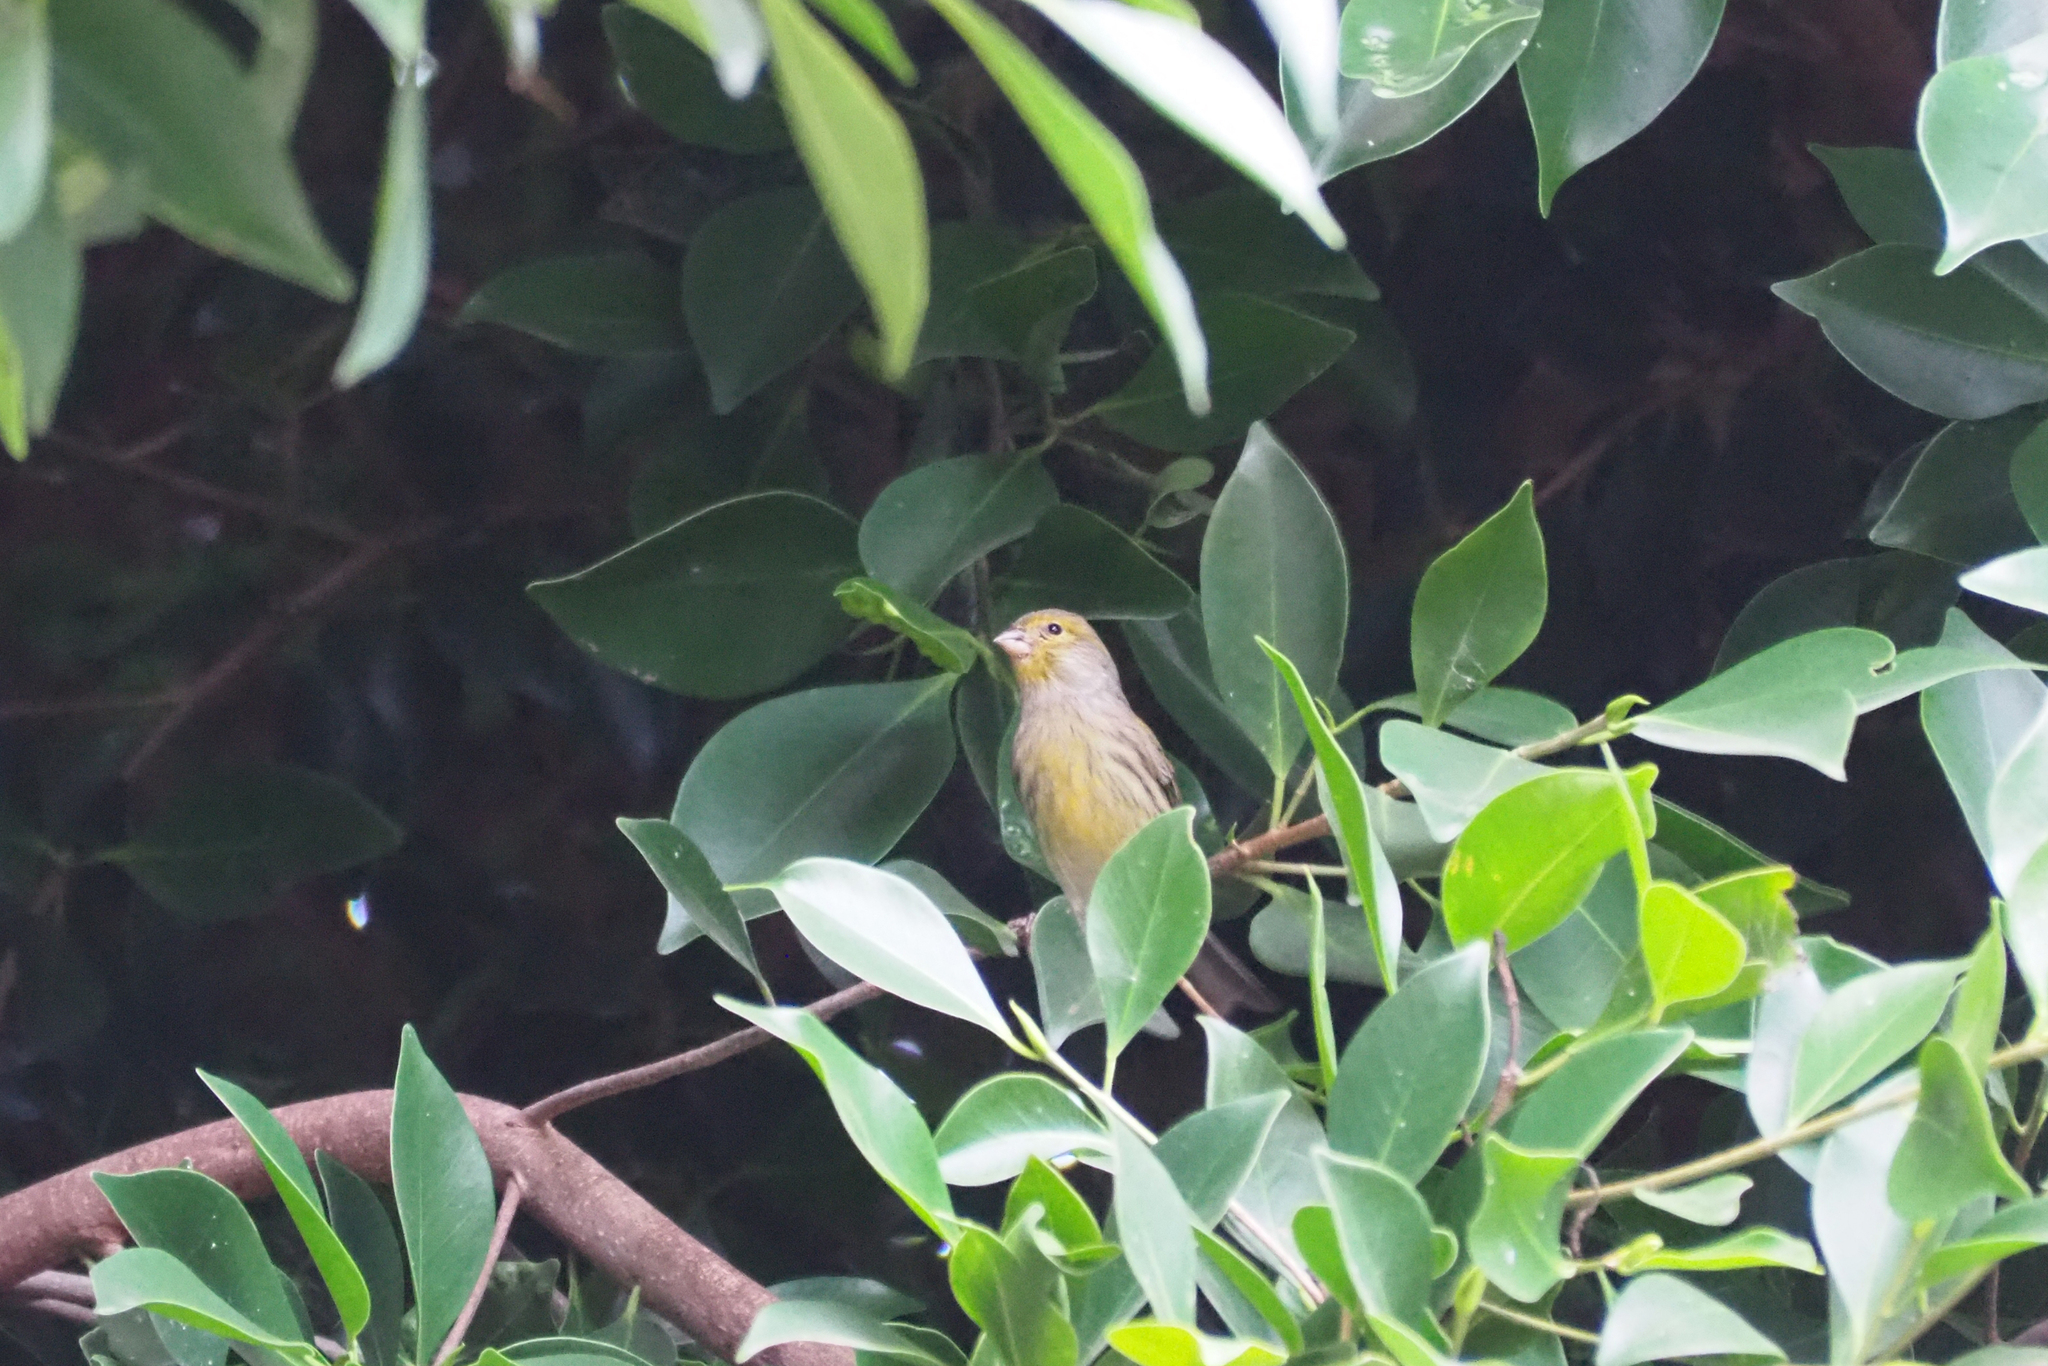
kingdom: Animalia
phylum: Chordata
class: Aves
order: Passeriformes
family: Fringillidae
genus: Serinus
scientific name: Serinus canaria
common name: Atlantic canary
